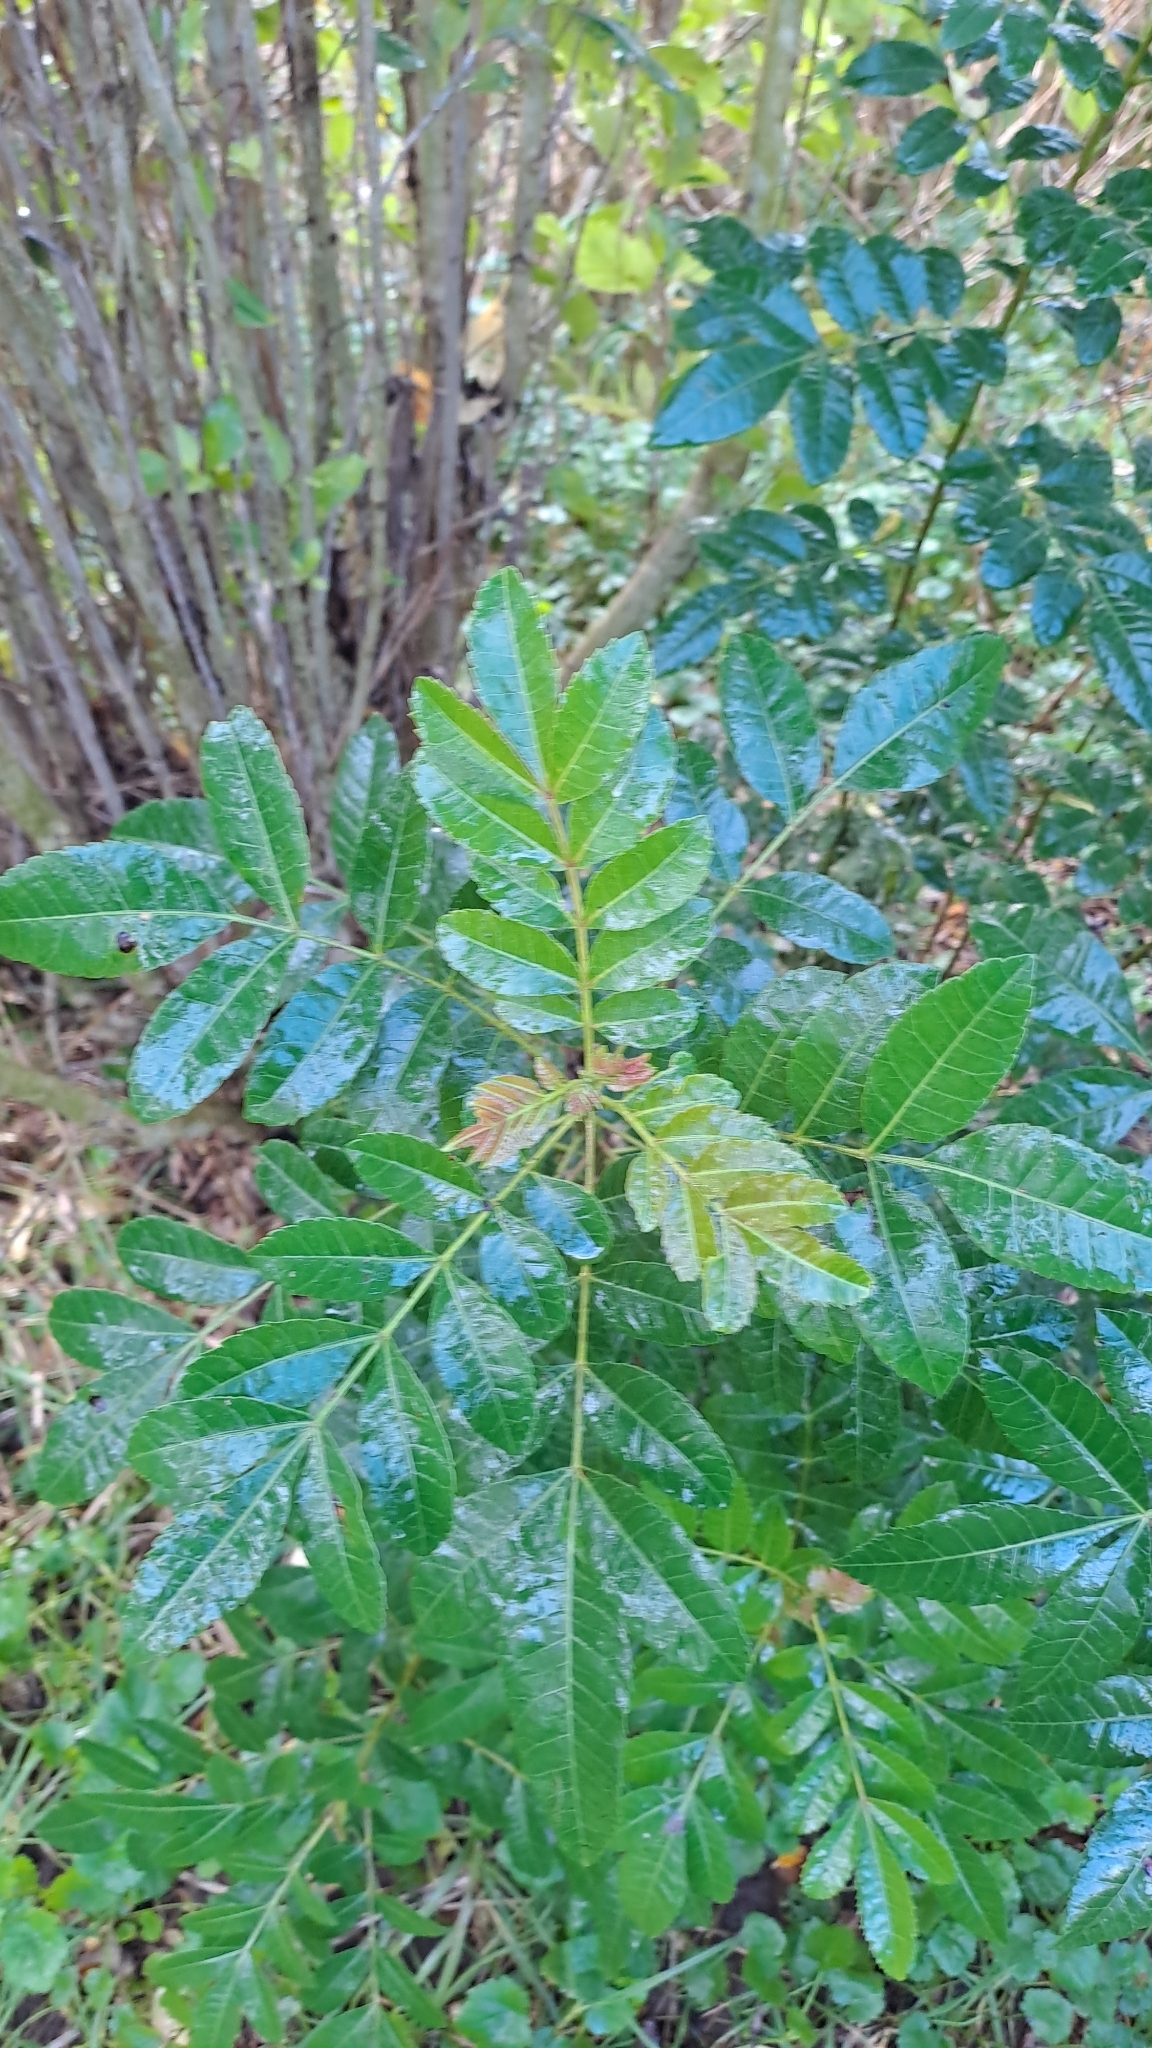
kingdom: Plantae
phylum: Tracheophyta
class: Magnoliopsida
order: Sapindales
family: Anacardiaceae
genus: Schinus
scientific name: Schinus terebinthifolia
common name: Brazilian peppertree
